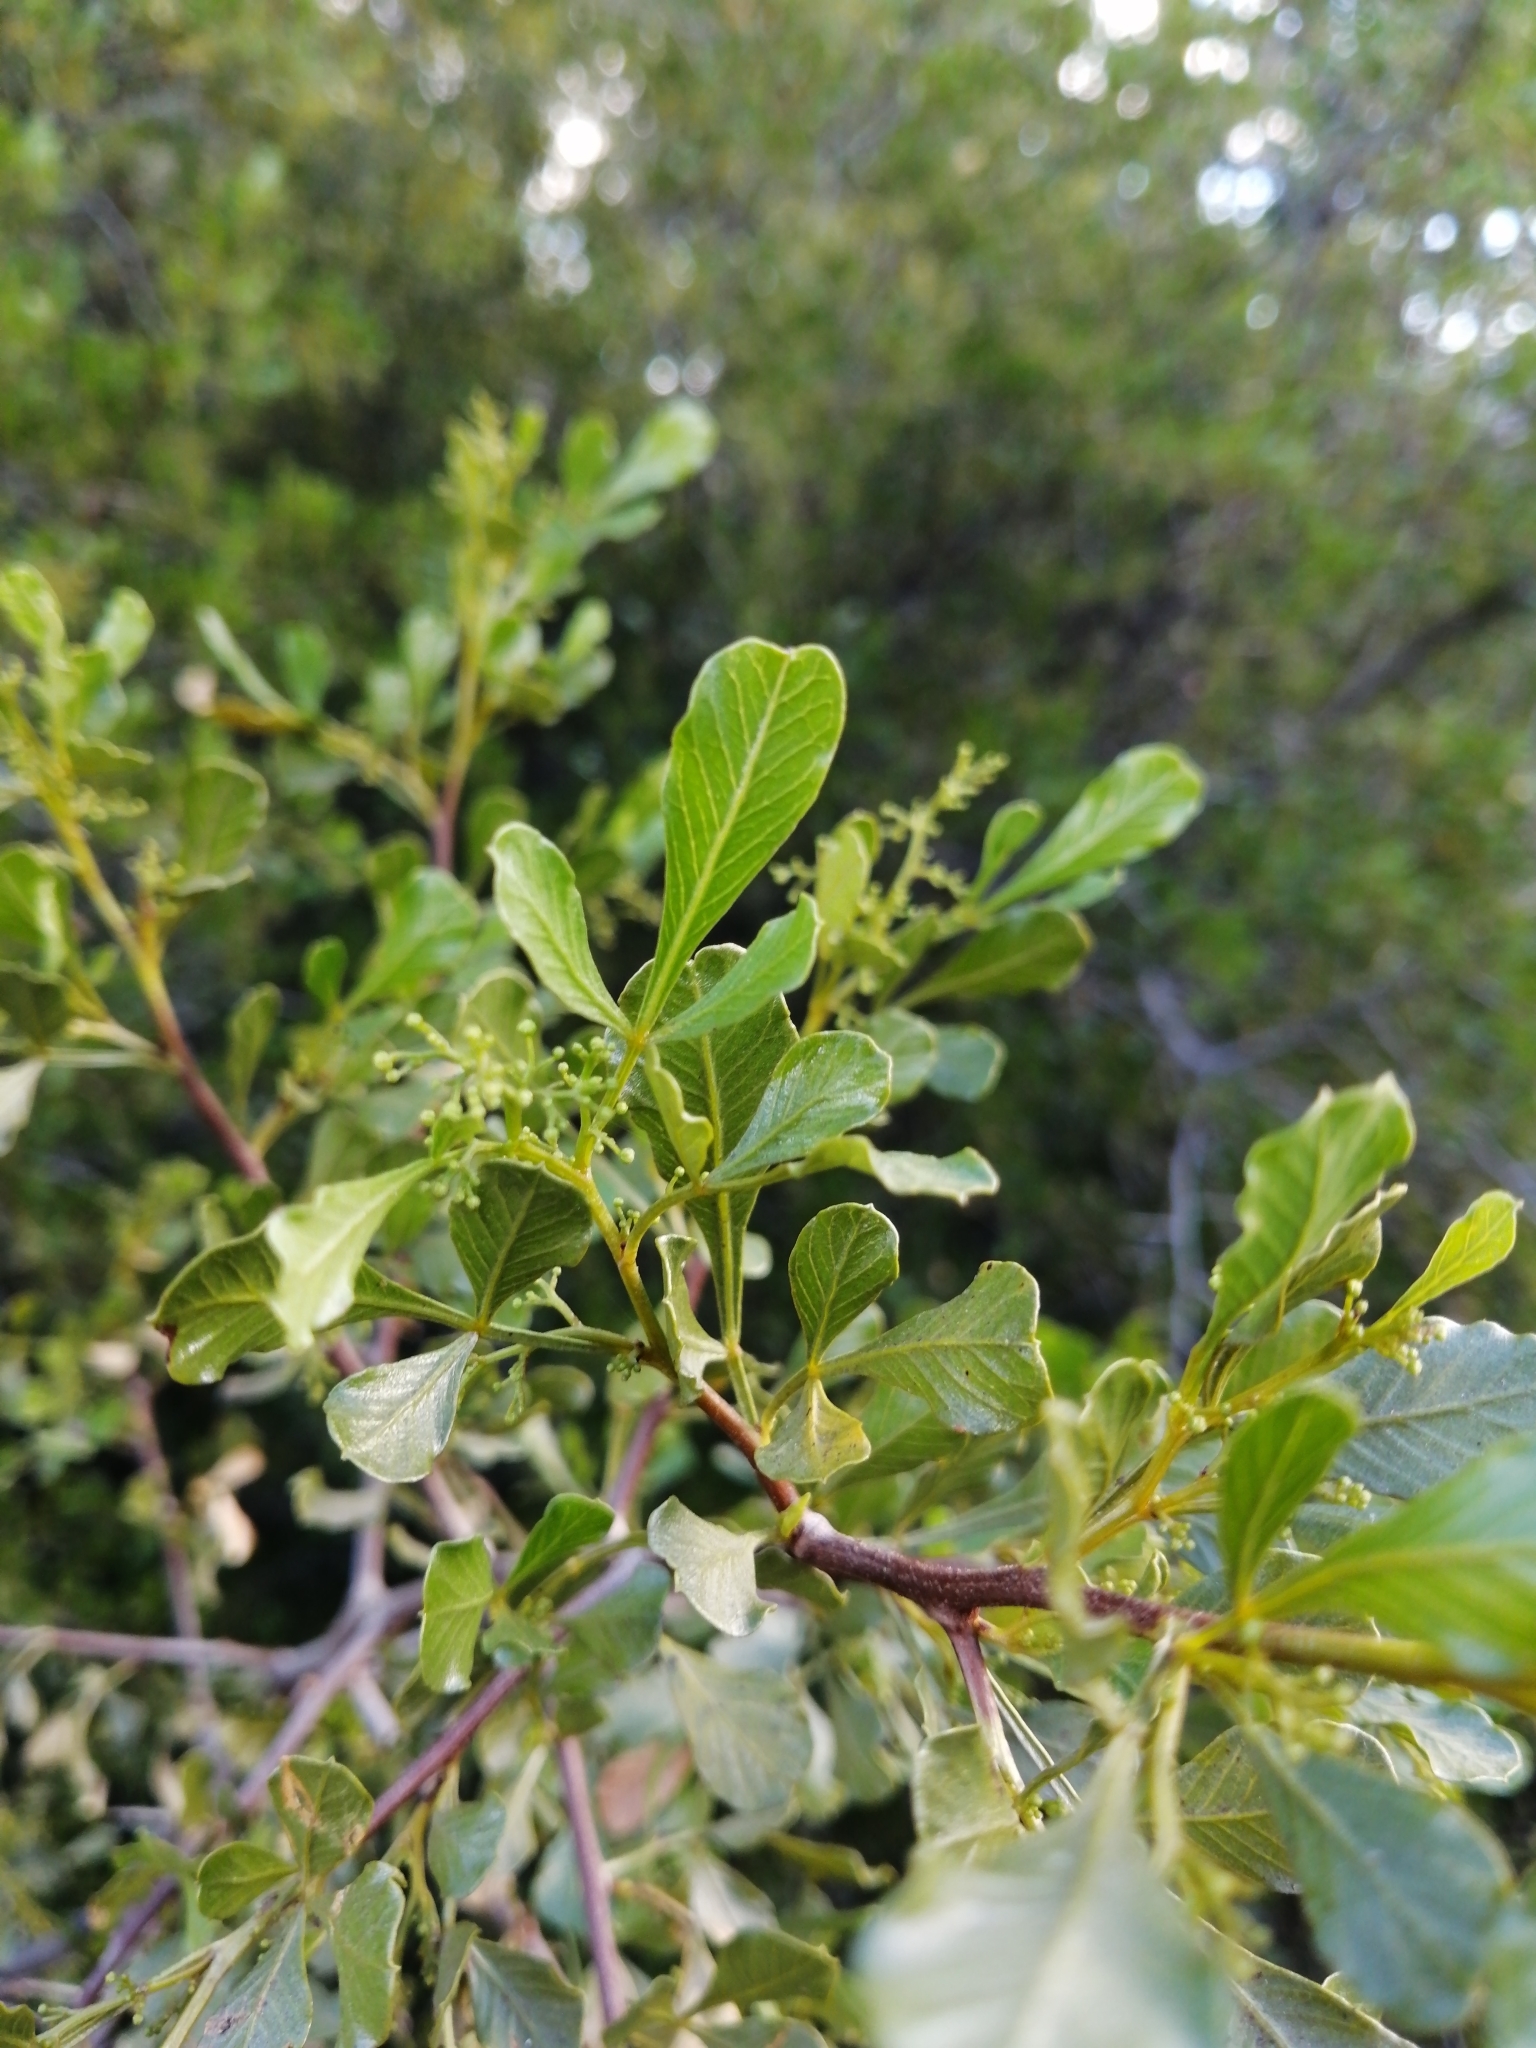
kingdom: Plantae
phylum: Tracheophyta
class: Magnoliopsida
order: Sapindales
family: Anacardiaceae
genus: Searsia
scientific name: Searsia undulata
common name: Namaqua kunibush
